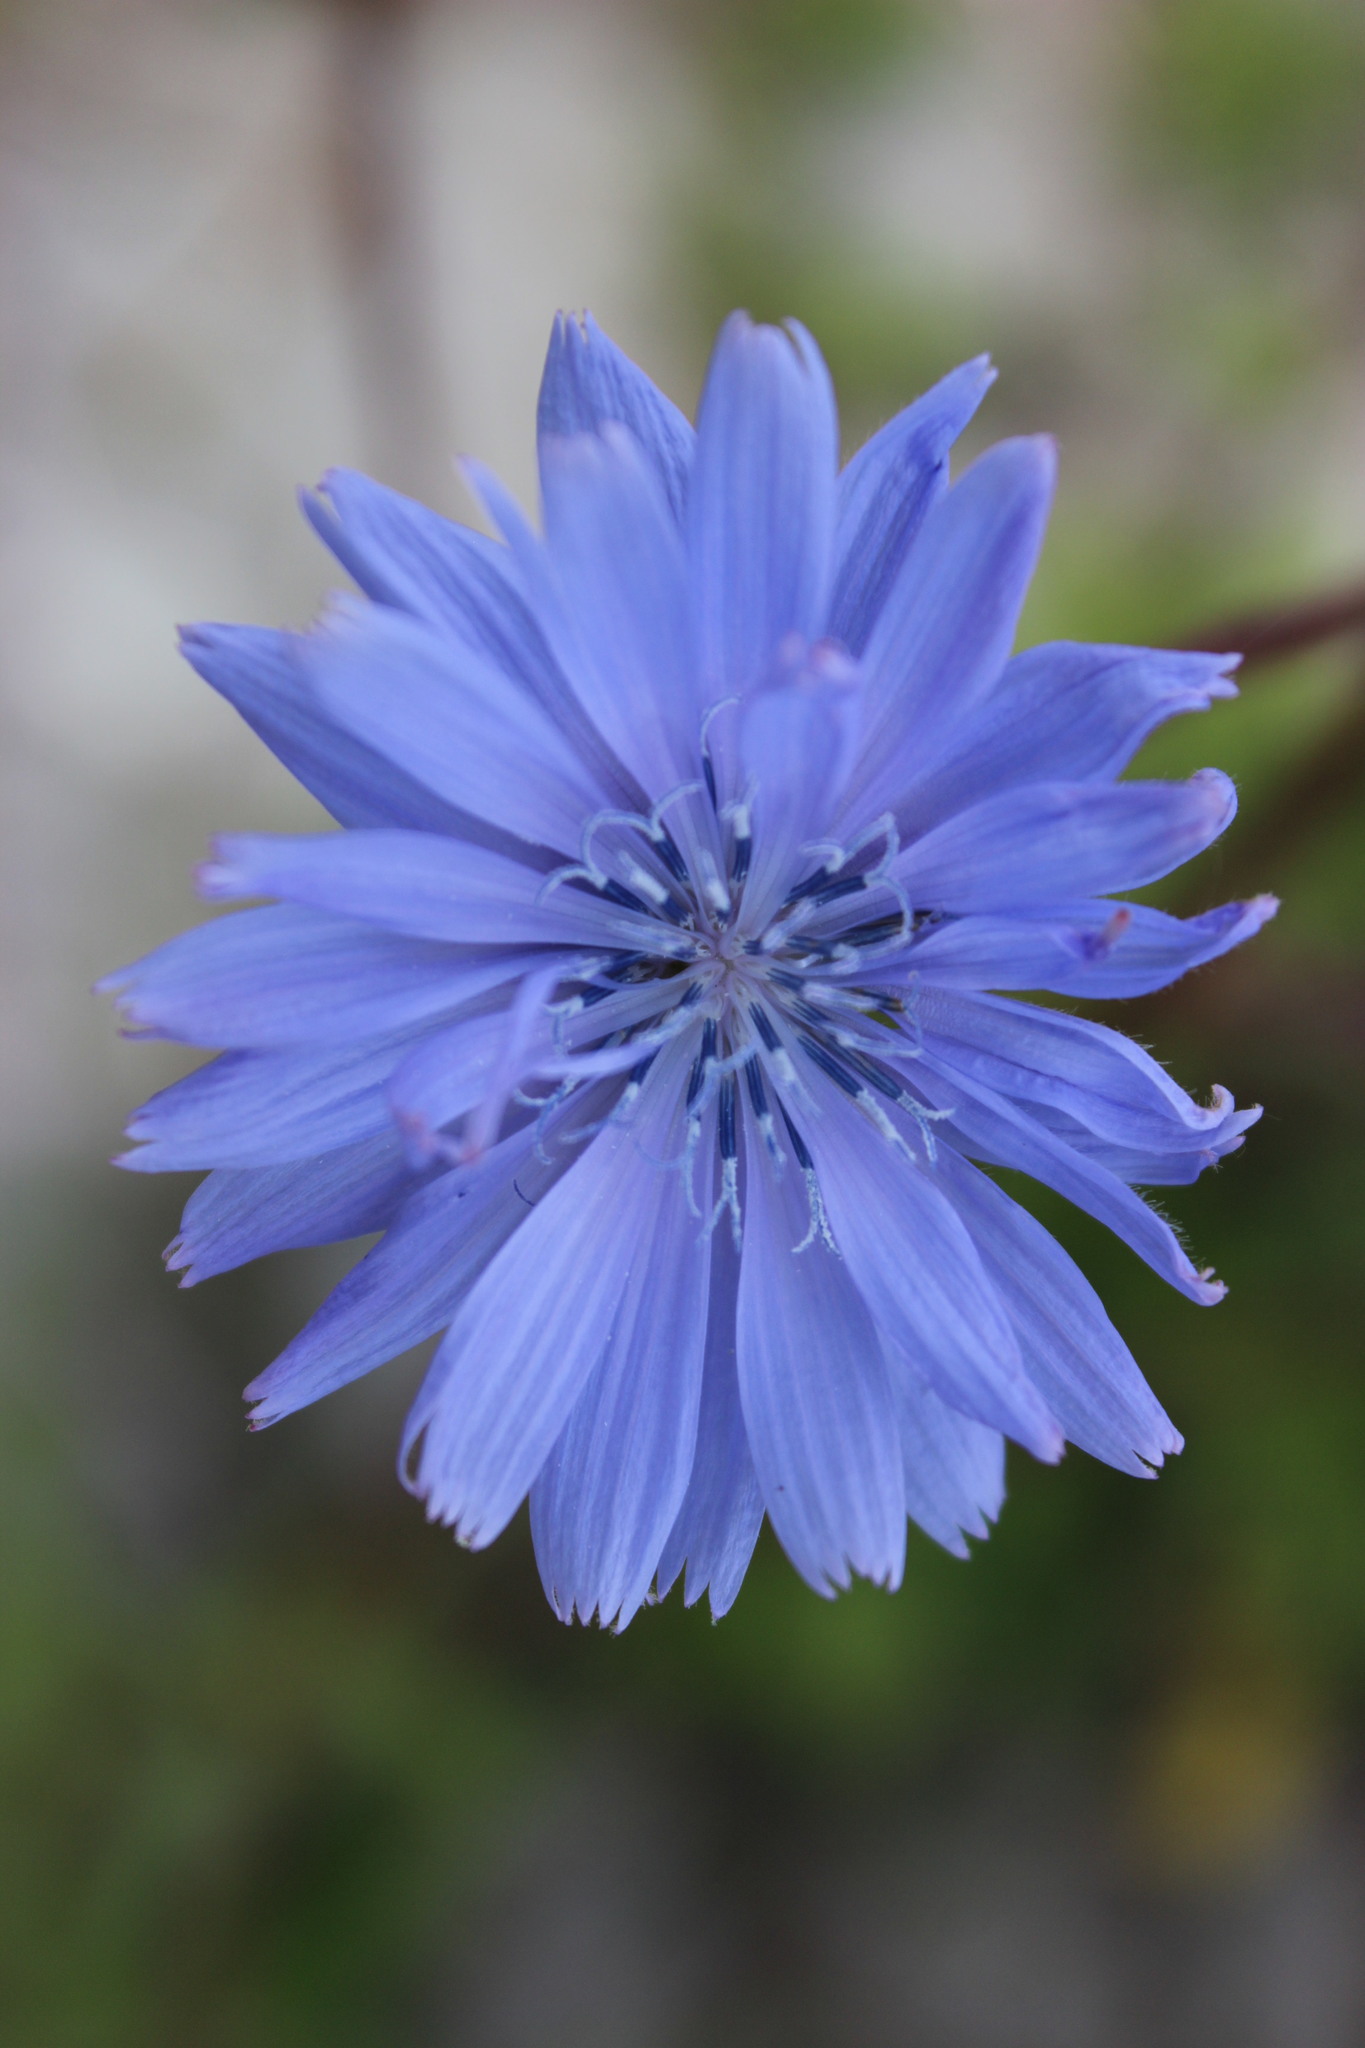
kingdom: Plantae
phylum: Tracheophyta
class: Magnoliopsida
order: Asterales
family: Asteraceae
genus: Cichorium
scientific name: Cichorium intybus
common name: Chicory
